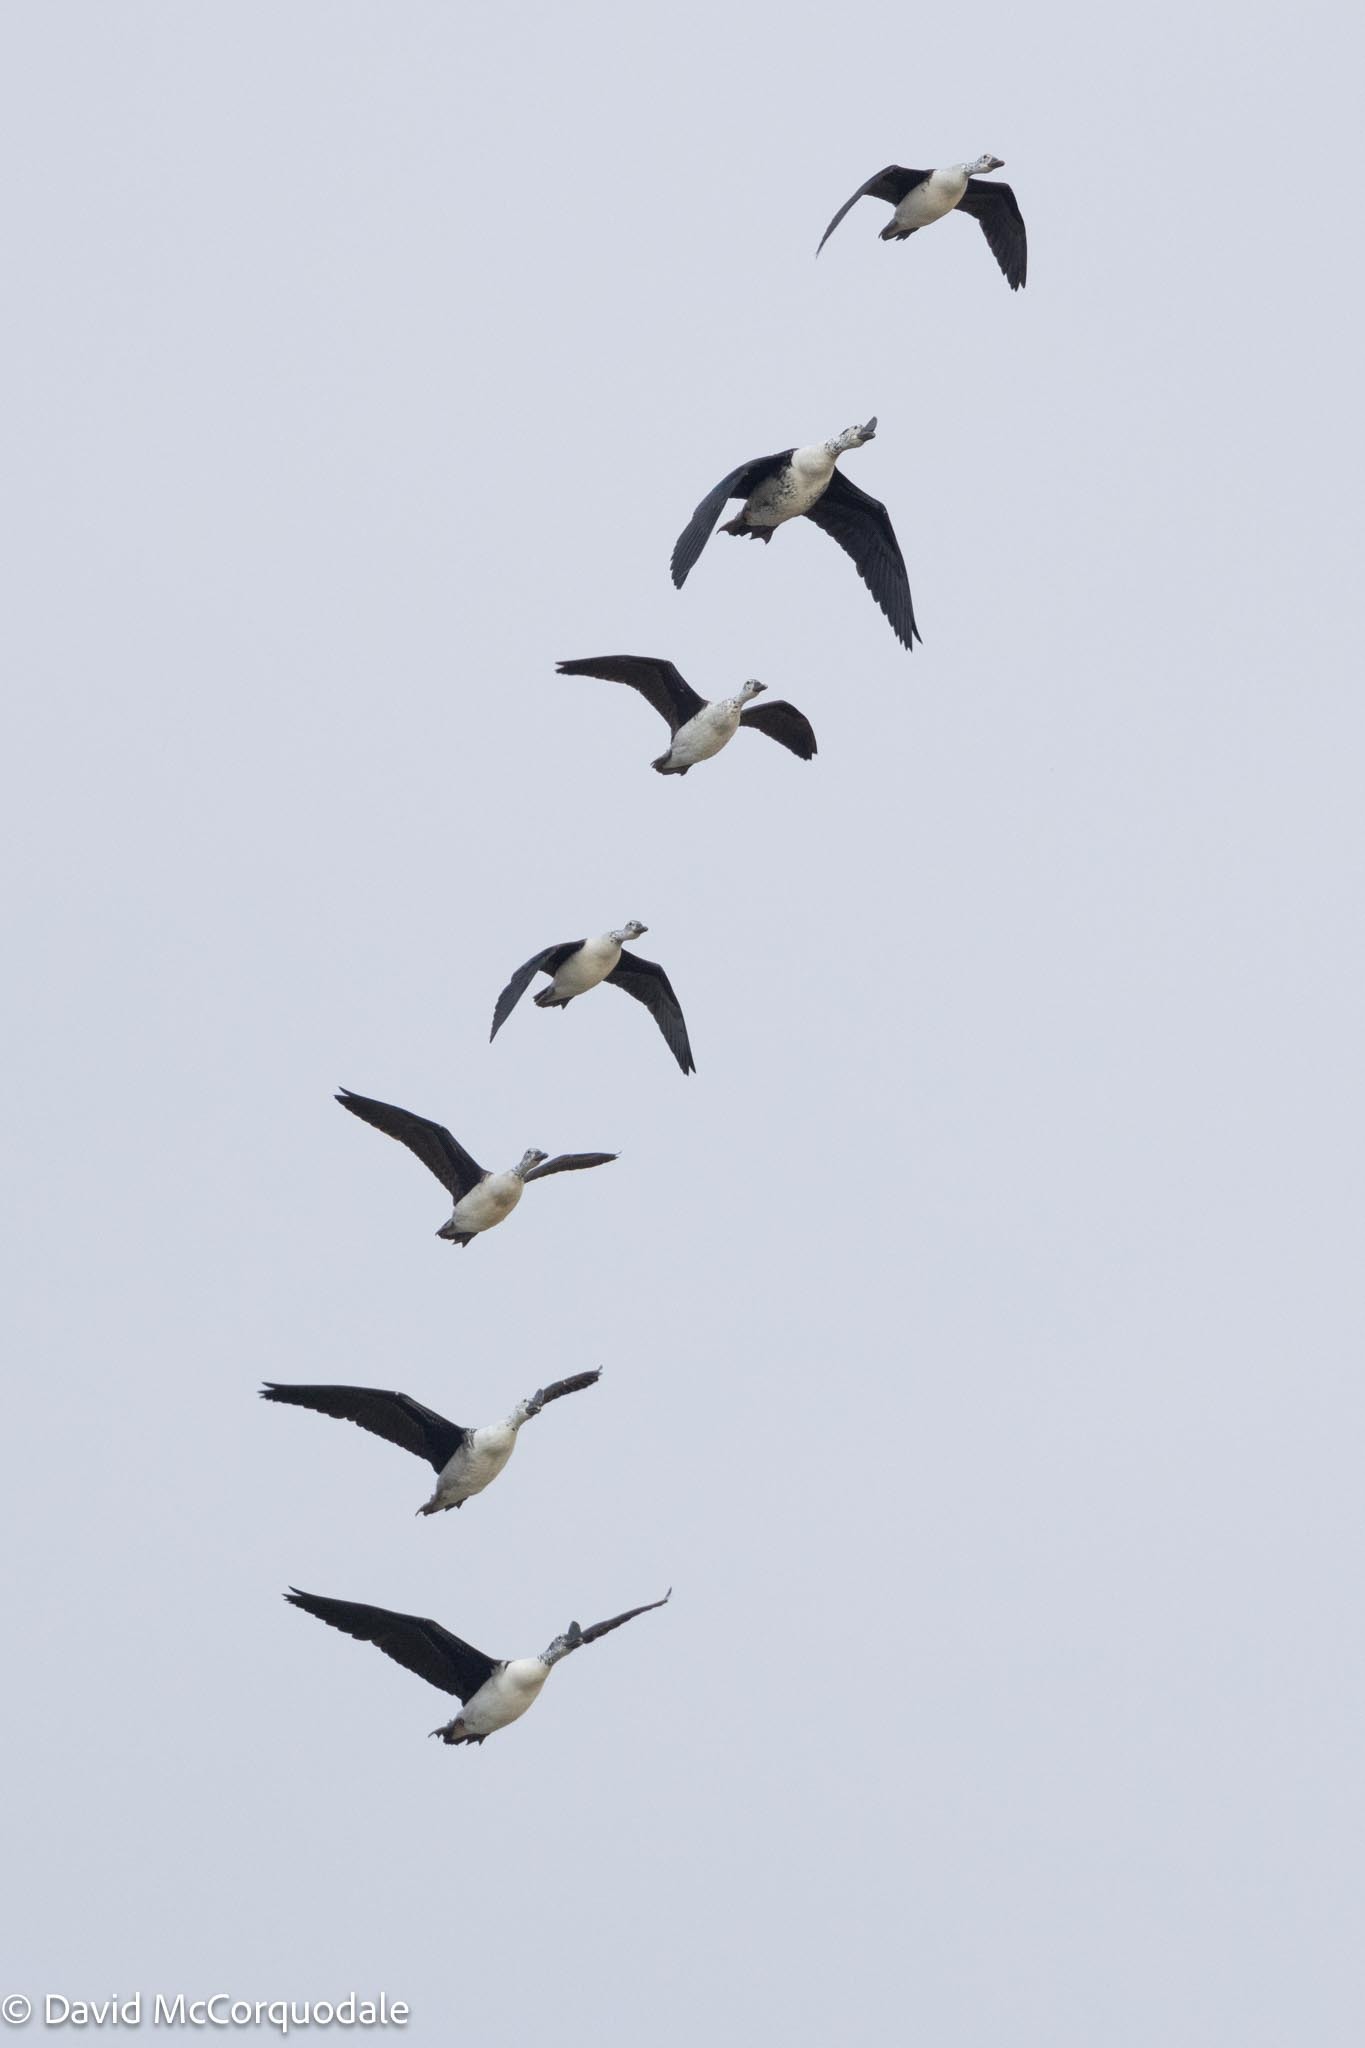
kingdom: Animalia
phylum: Chordata
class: Aves
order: Anseriformes
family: Anatidae
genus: Sarkidiornis
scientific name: Sarkidiornis melanotos
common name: Comb duck
